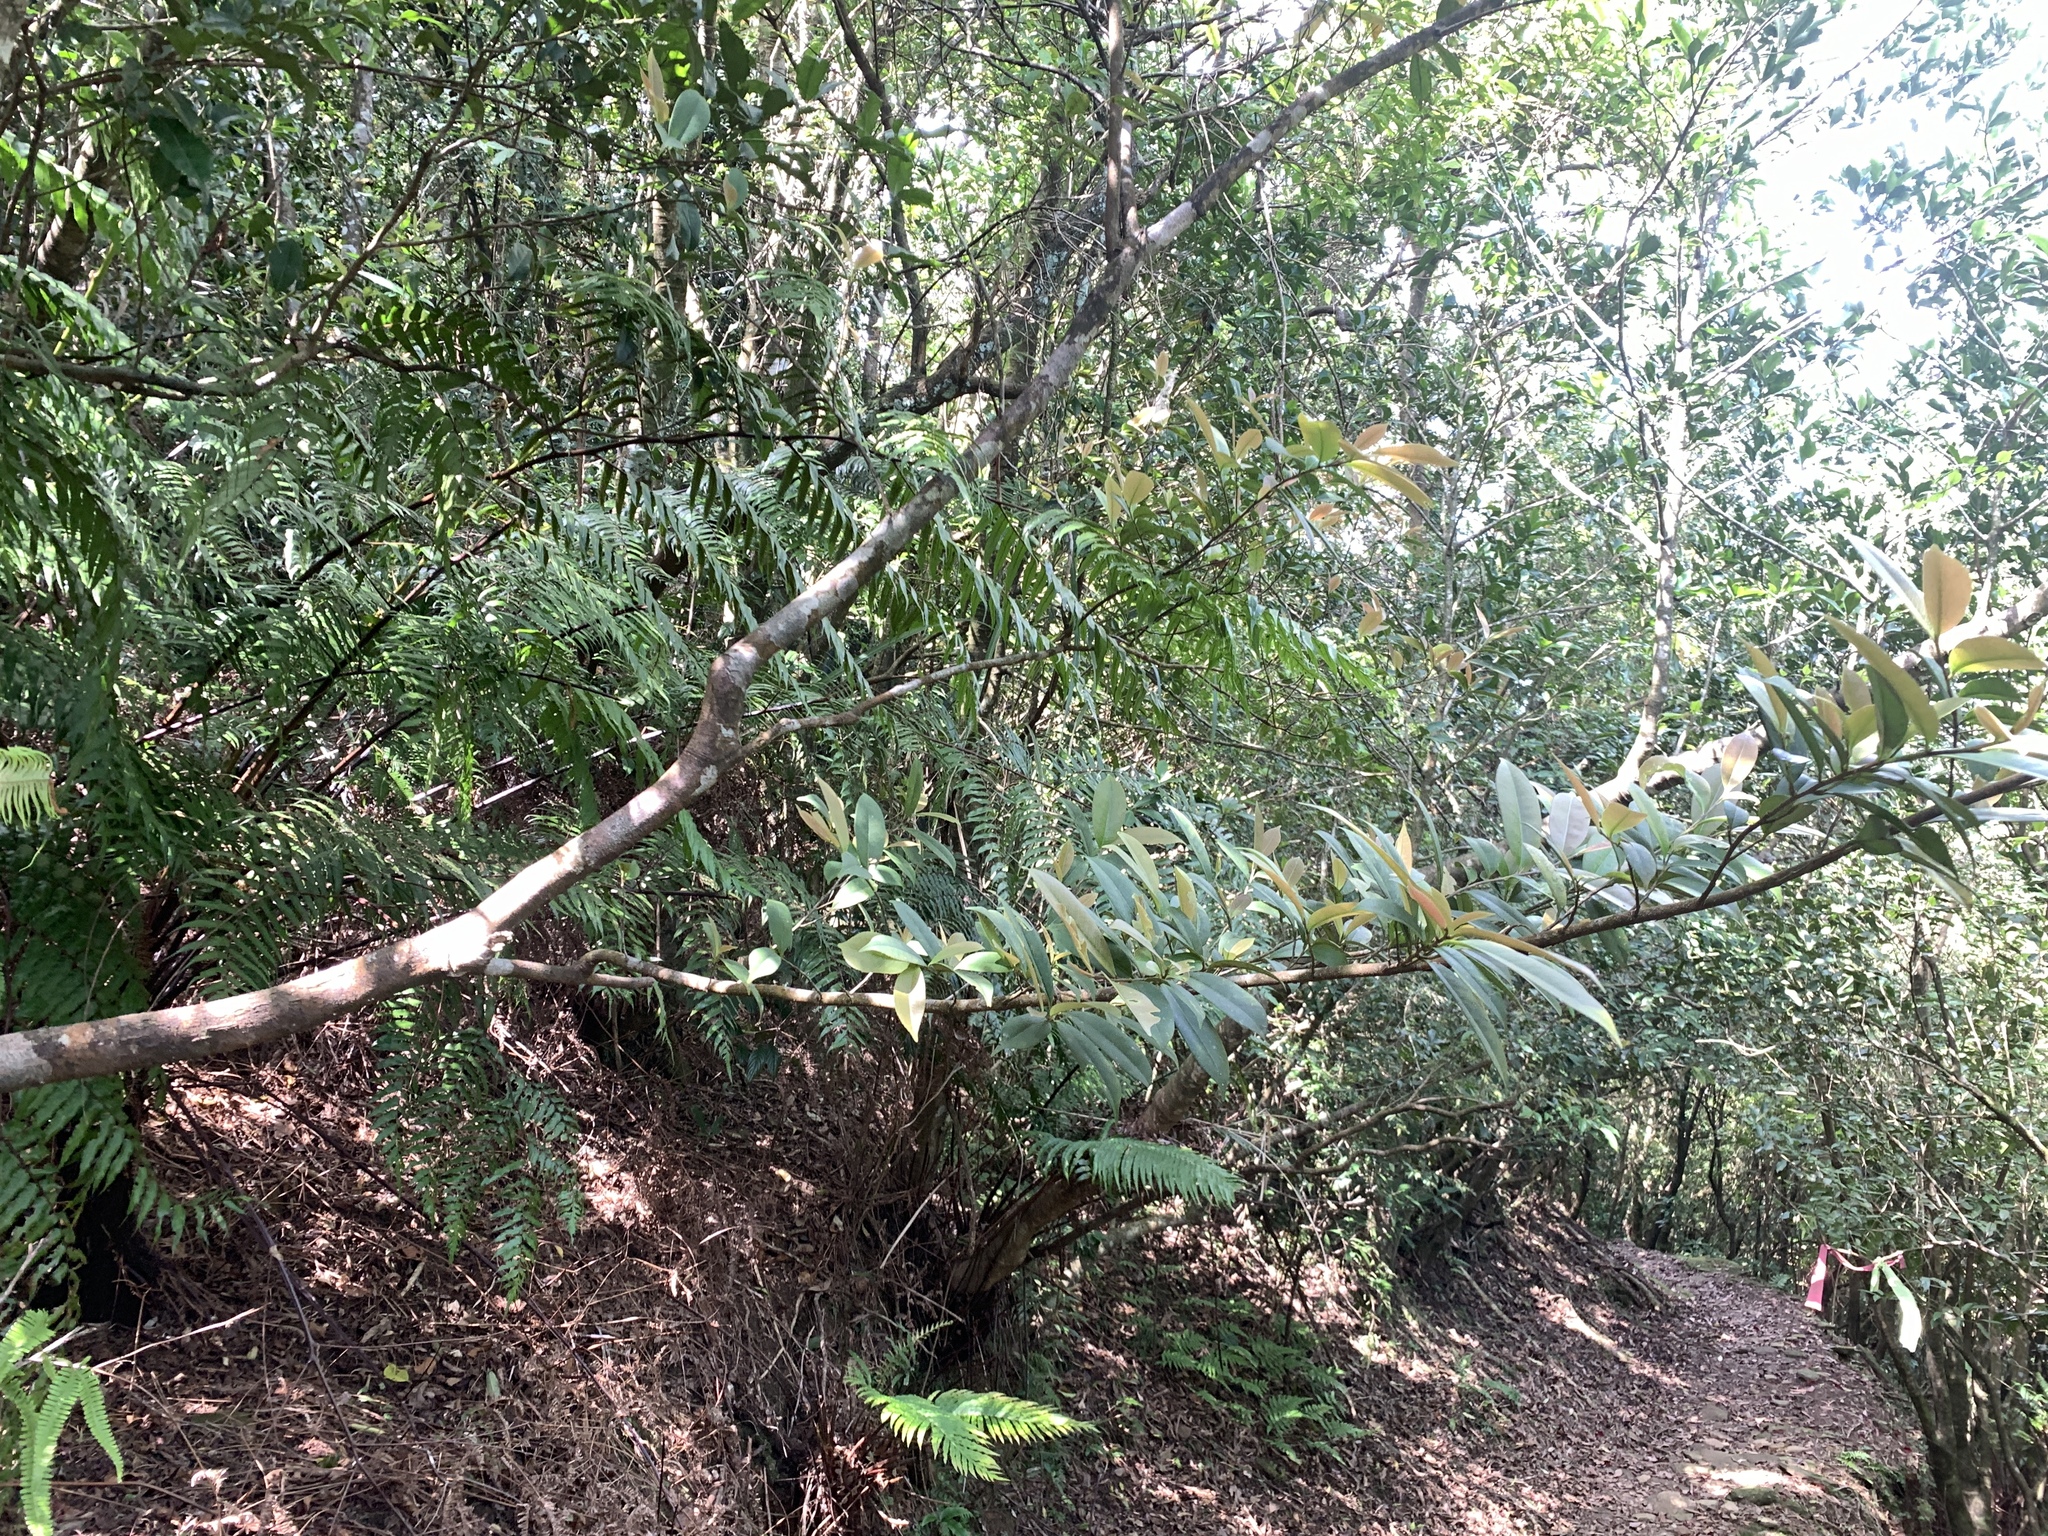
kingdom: Plantae
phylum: Tracheophyta
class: Magnoliopsida
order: Ericales
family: Pentaphylacaceae
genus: Adinandra
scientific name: Adinandra formosana
